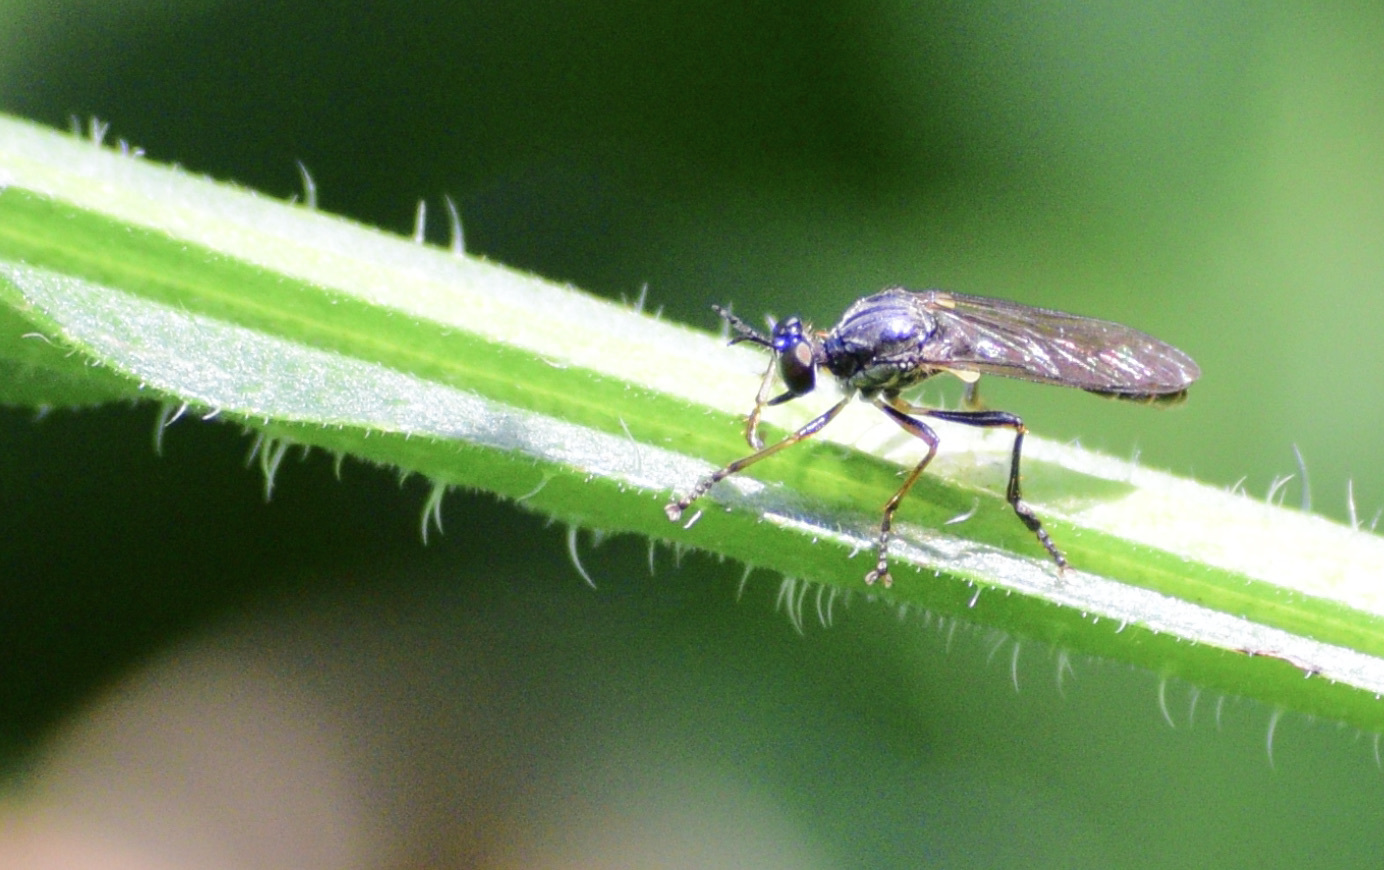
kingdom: Animalia
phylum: Arthropoda
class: Insecta
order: Diptera
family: Asilidae
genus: Dioctria
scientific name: Dioctria hyalipennis
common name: Stripe-legged robberfly
